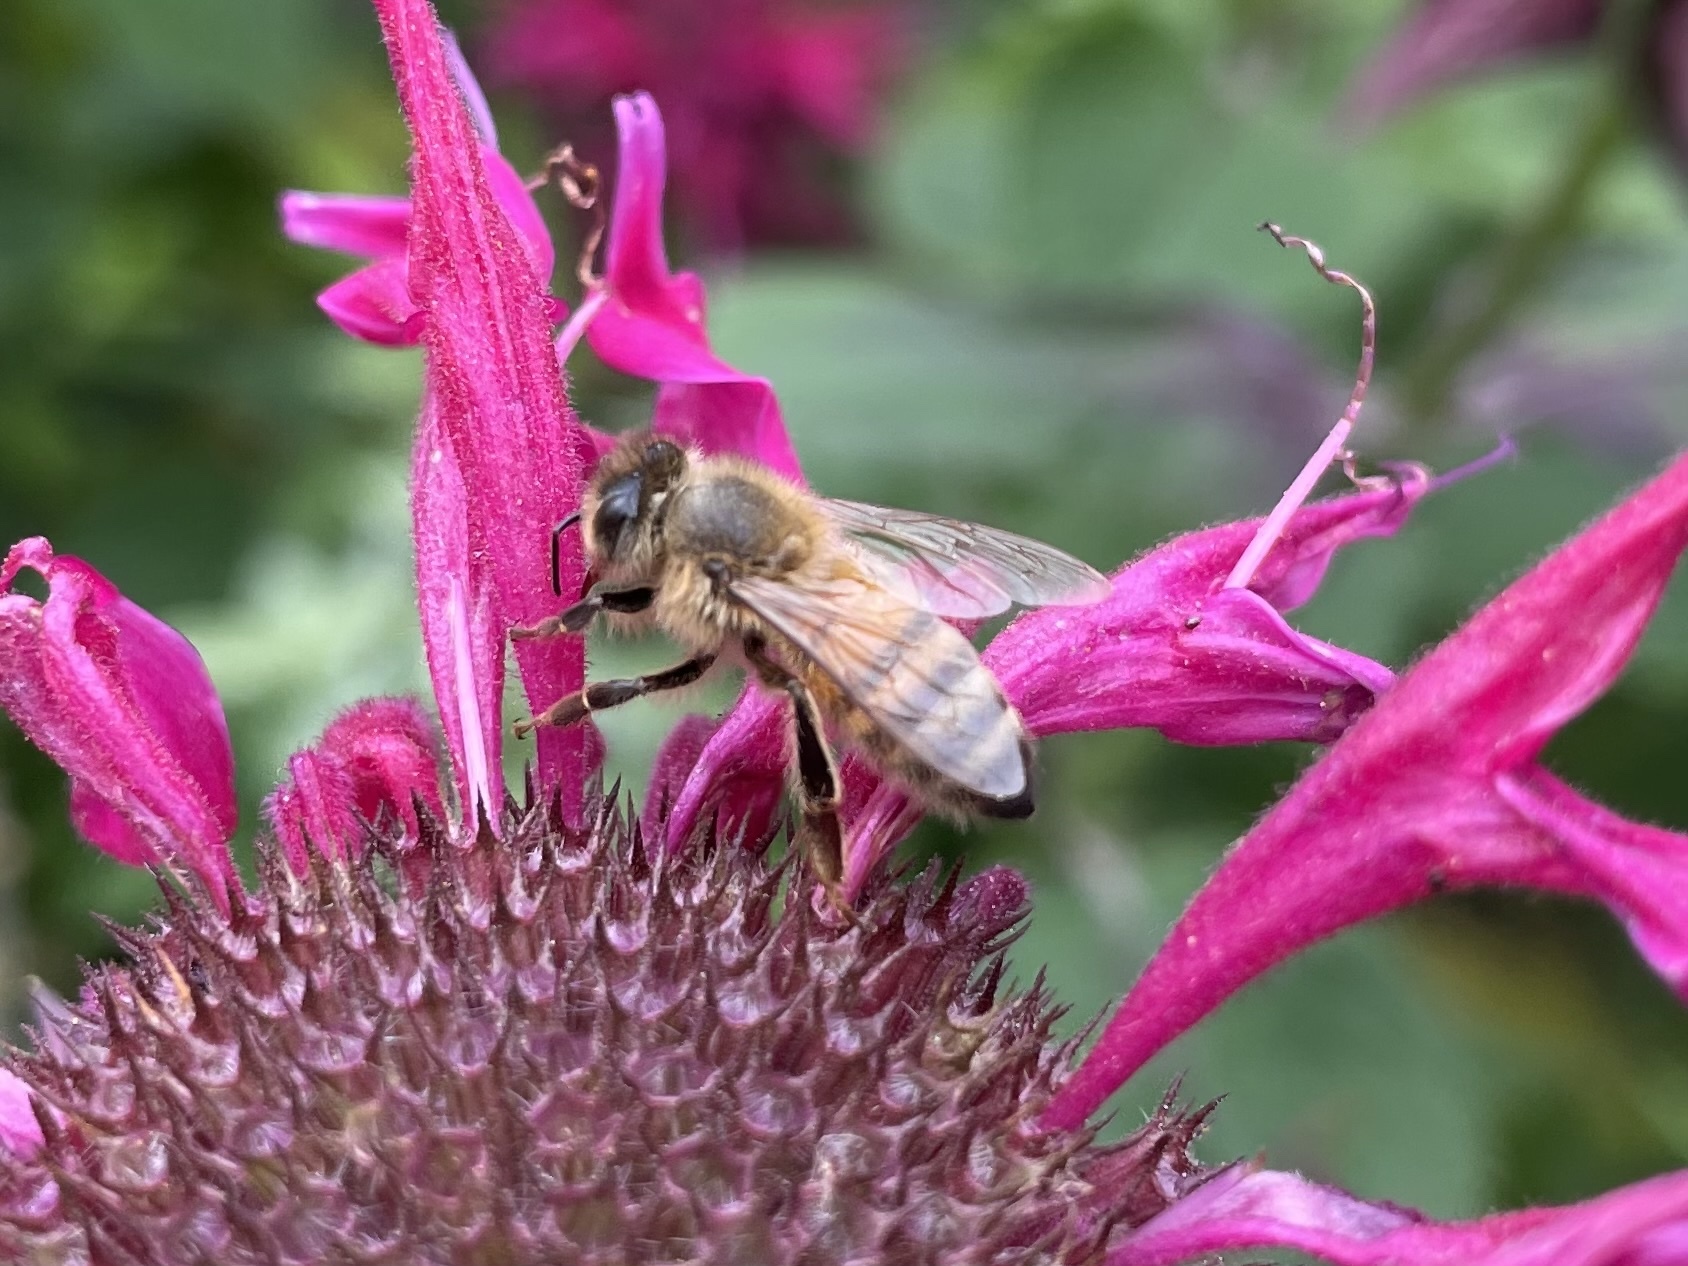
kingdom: Animalia
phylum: Arthropoda
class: Insecta
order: Hymenoptera
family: Apidae
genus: Apis
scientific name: Apis mellifera
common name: Honey bee
